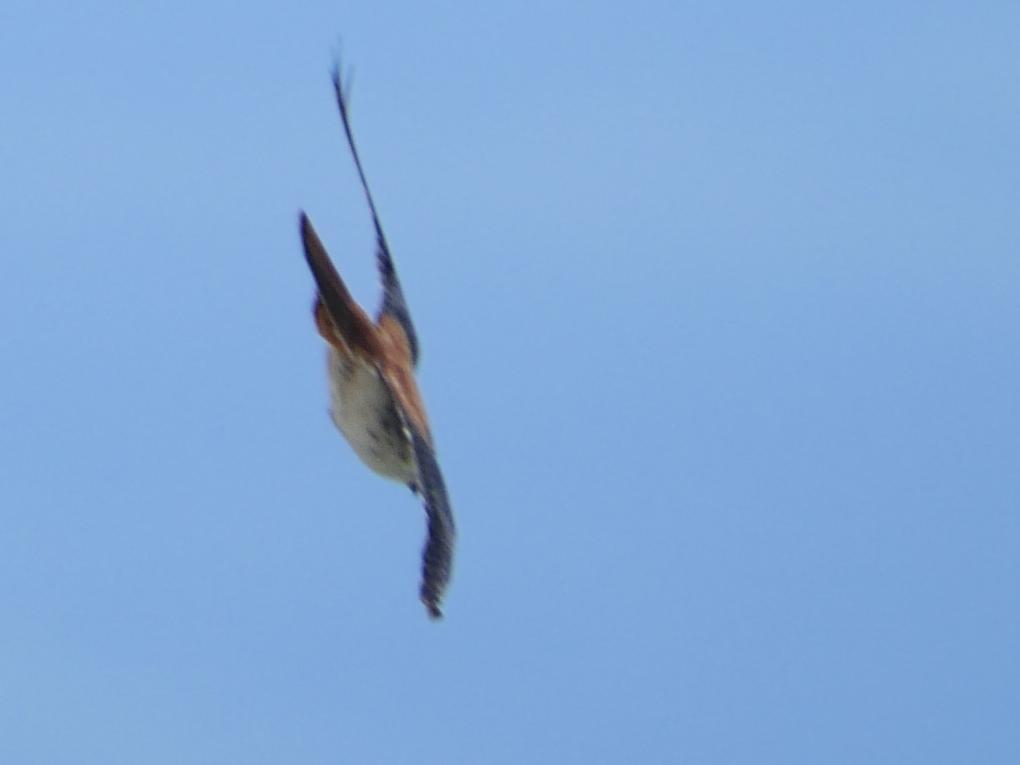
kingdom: Animalia
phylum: Chordata
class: Aves
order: Falconiformes
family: Falconidae
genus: Falco
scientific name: Falco sparverius
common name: American kestrel
